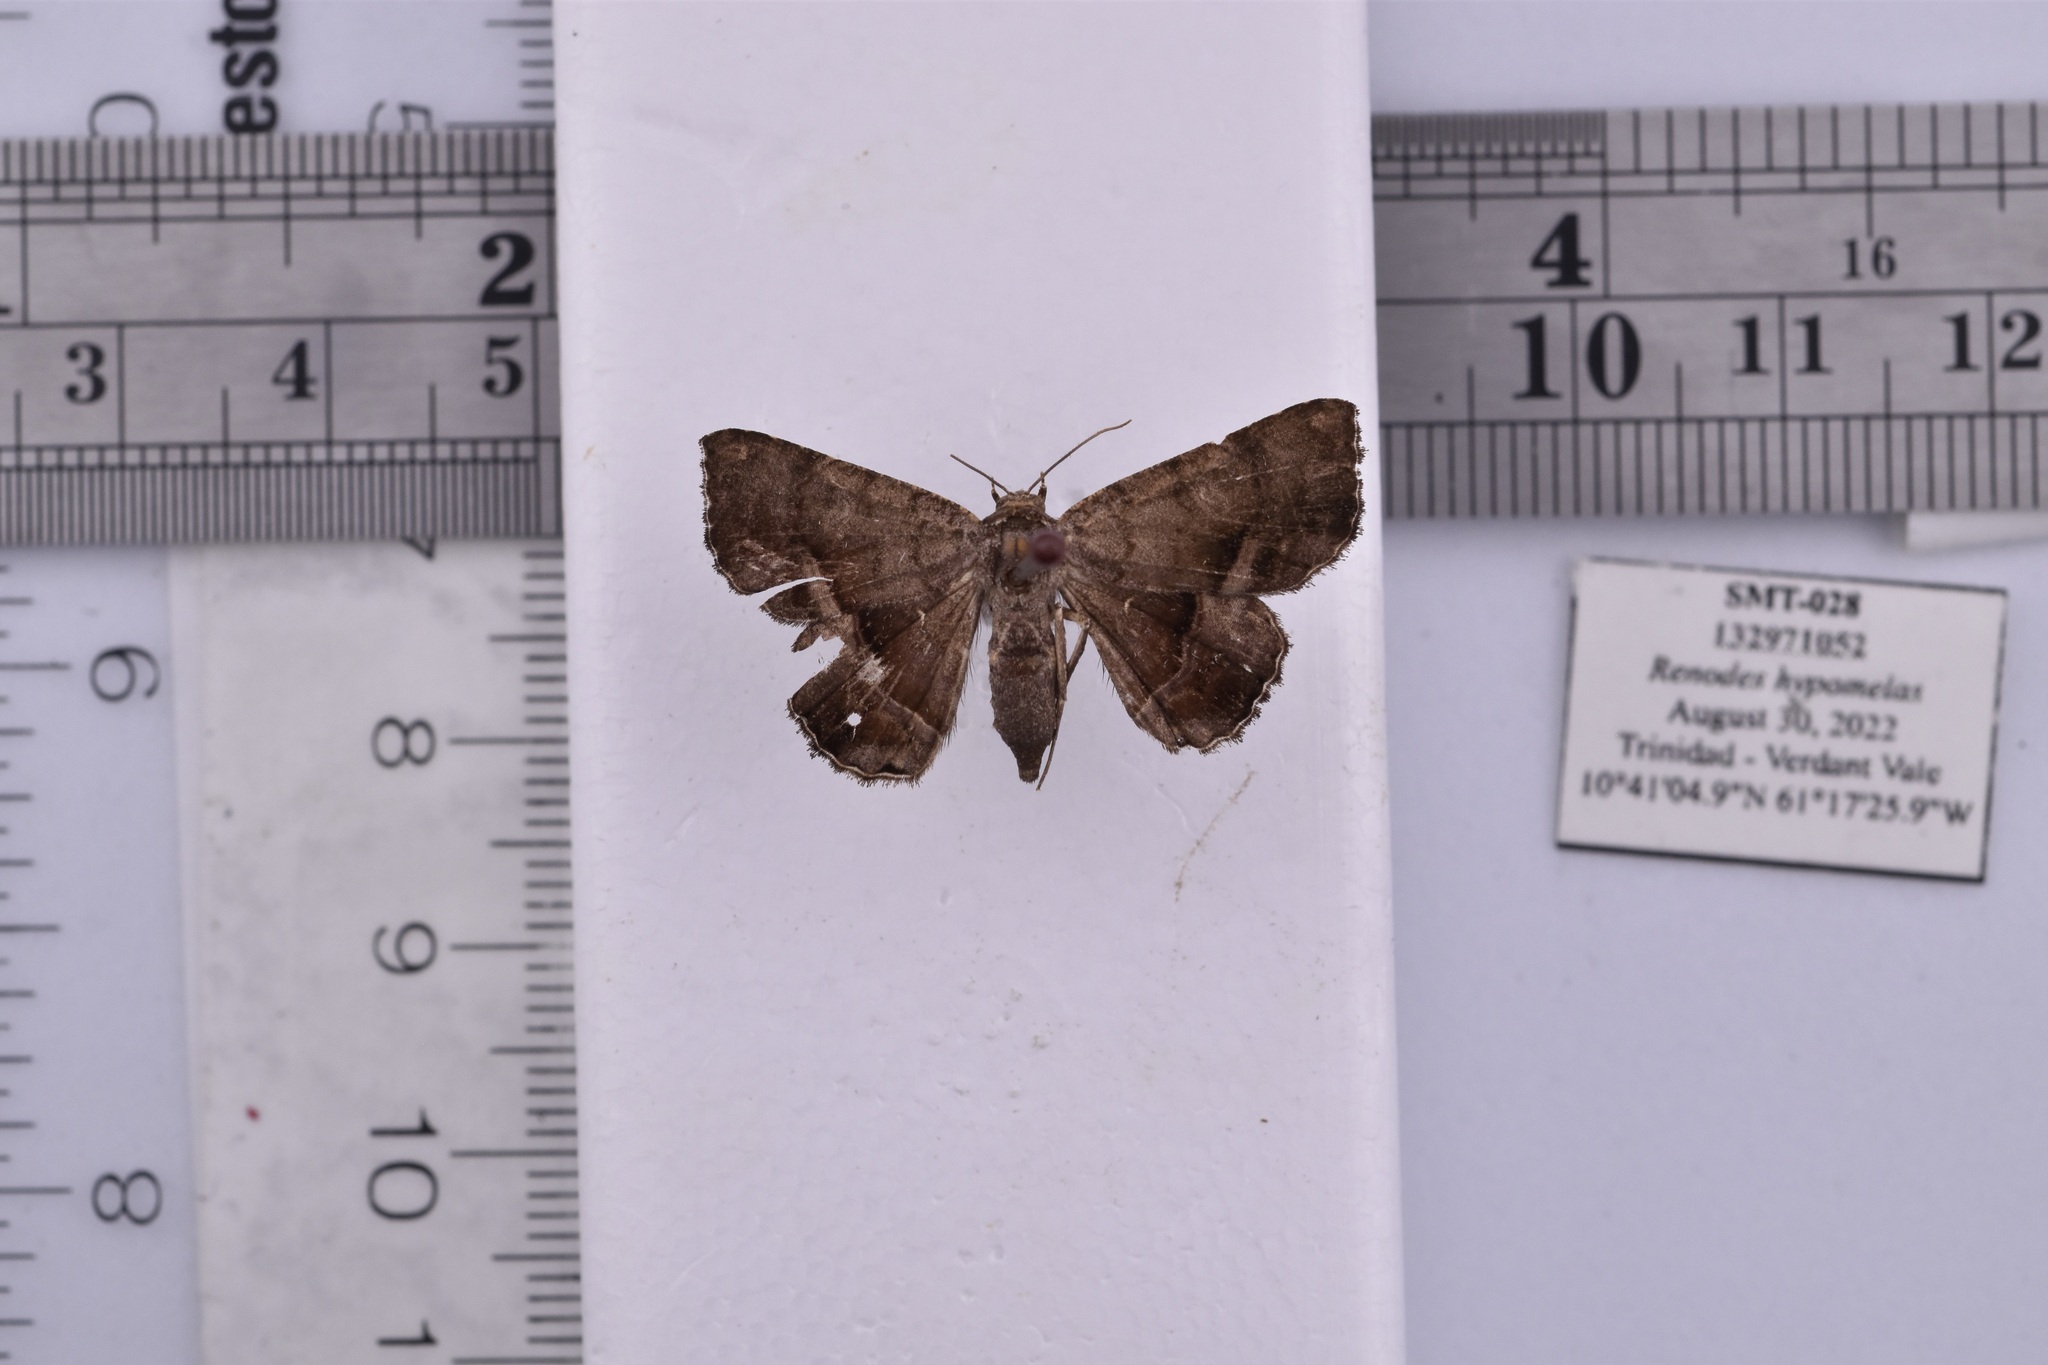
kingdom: Animalia
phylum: Arthropoda
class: Insecta
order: Lepidoptera
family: Erebidae
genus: Helia
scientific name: Helia exsiccata
